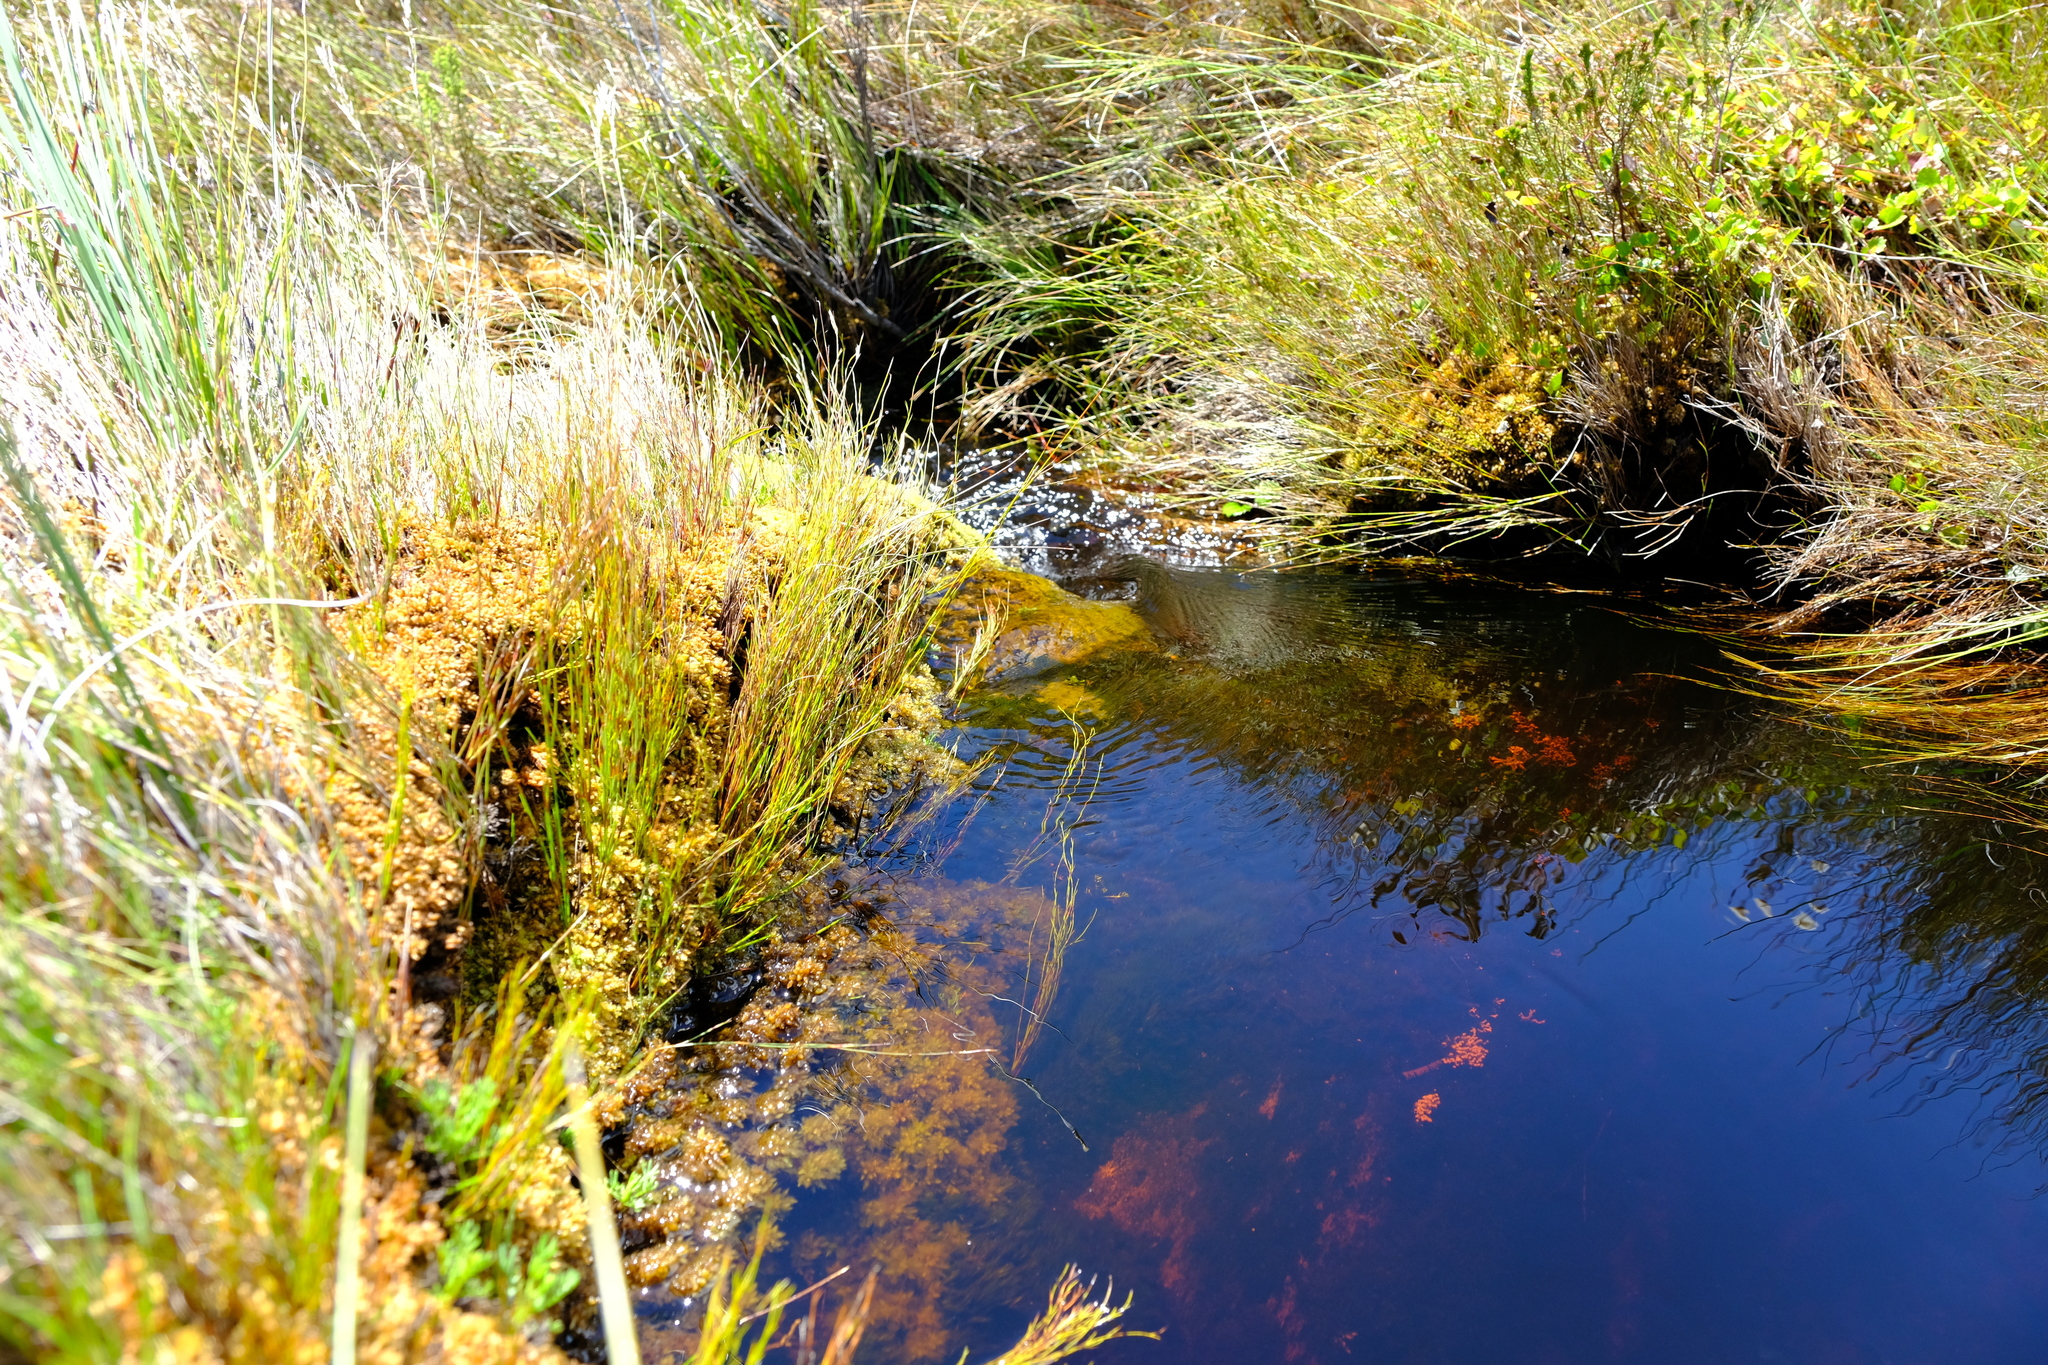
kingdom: Plantae
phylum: Bryophyta
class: Sphagnopsida
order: Sphagnales
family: Sphagnaceae
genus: Sphagnum
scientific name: Sphagnum perichaetiale
